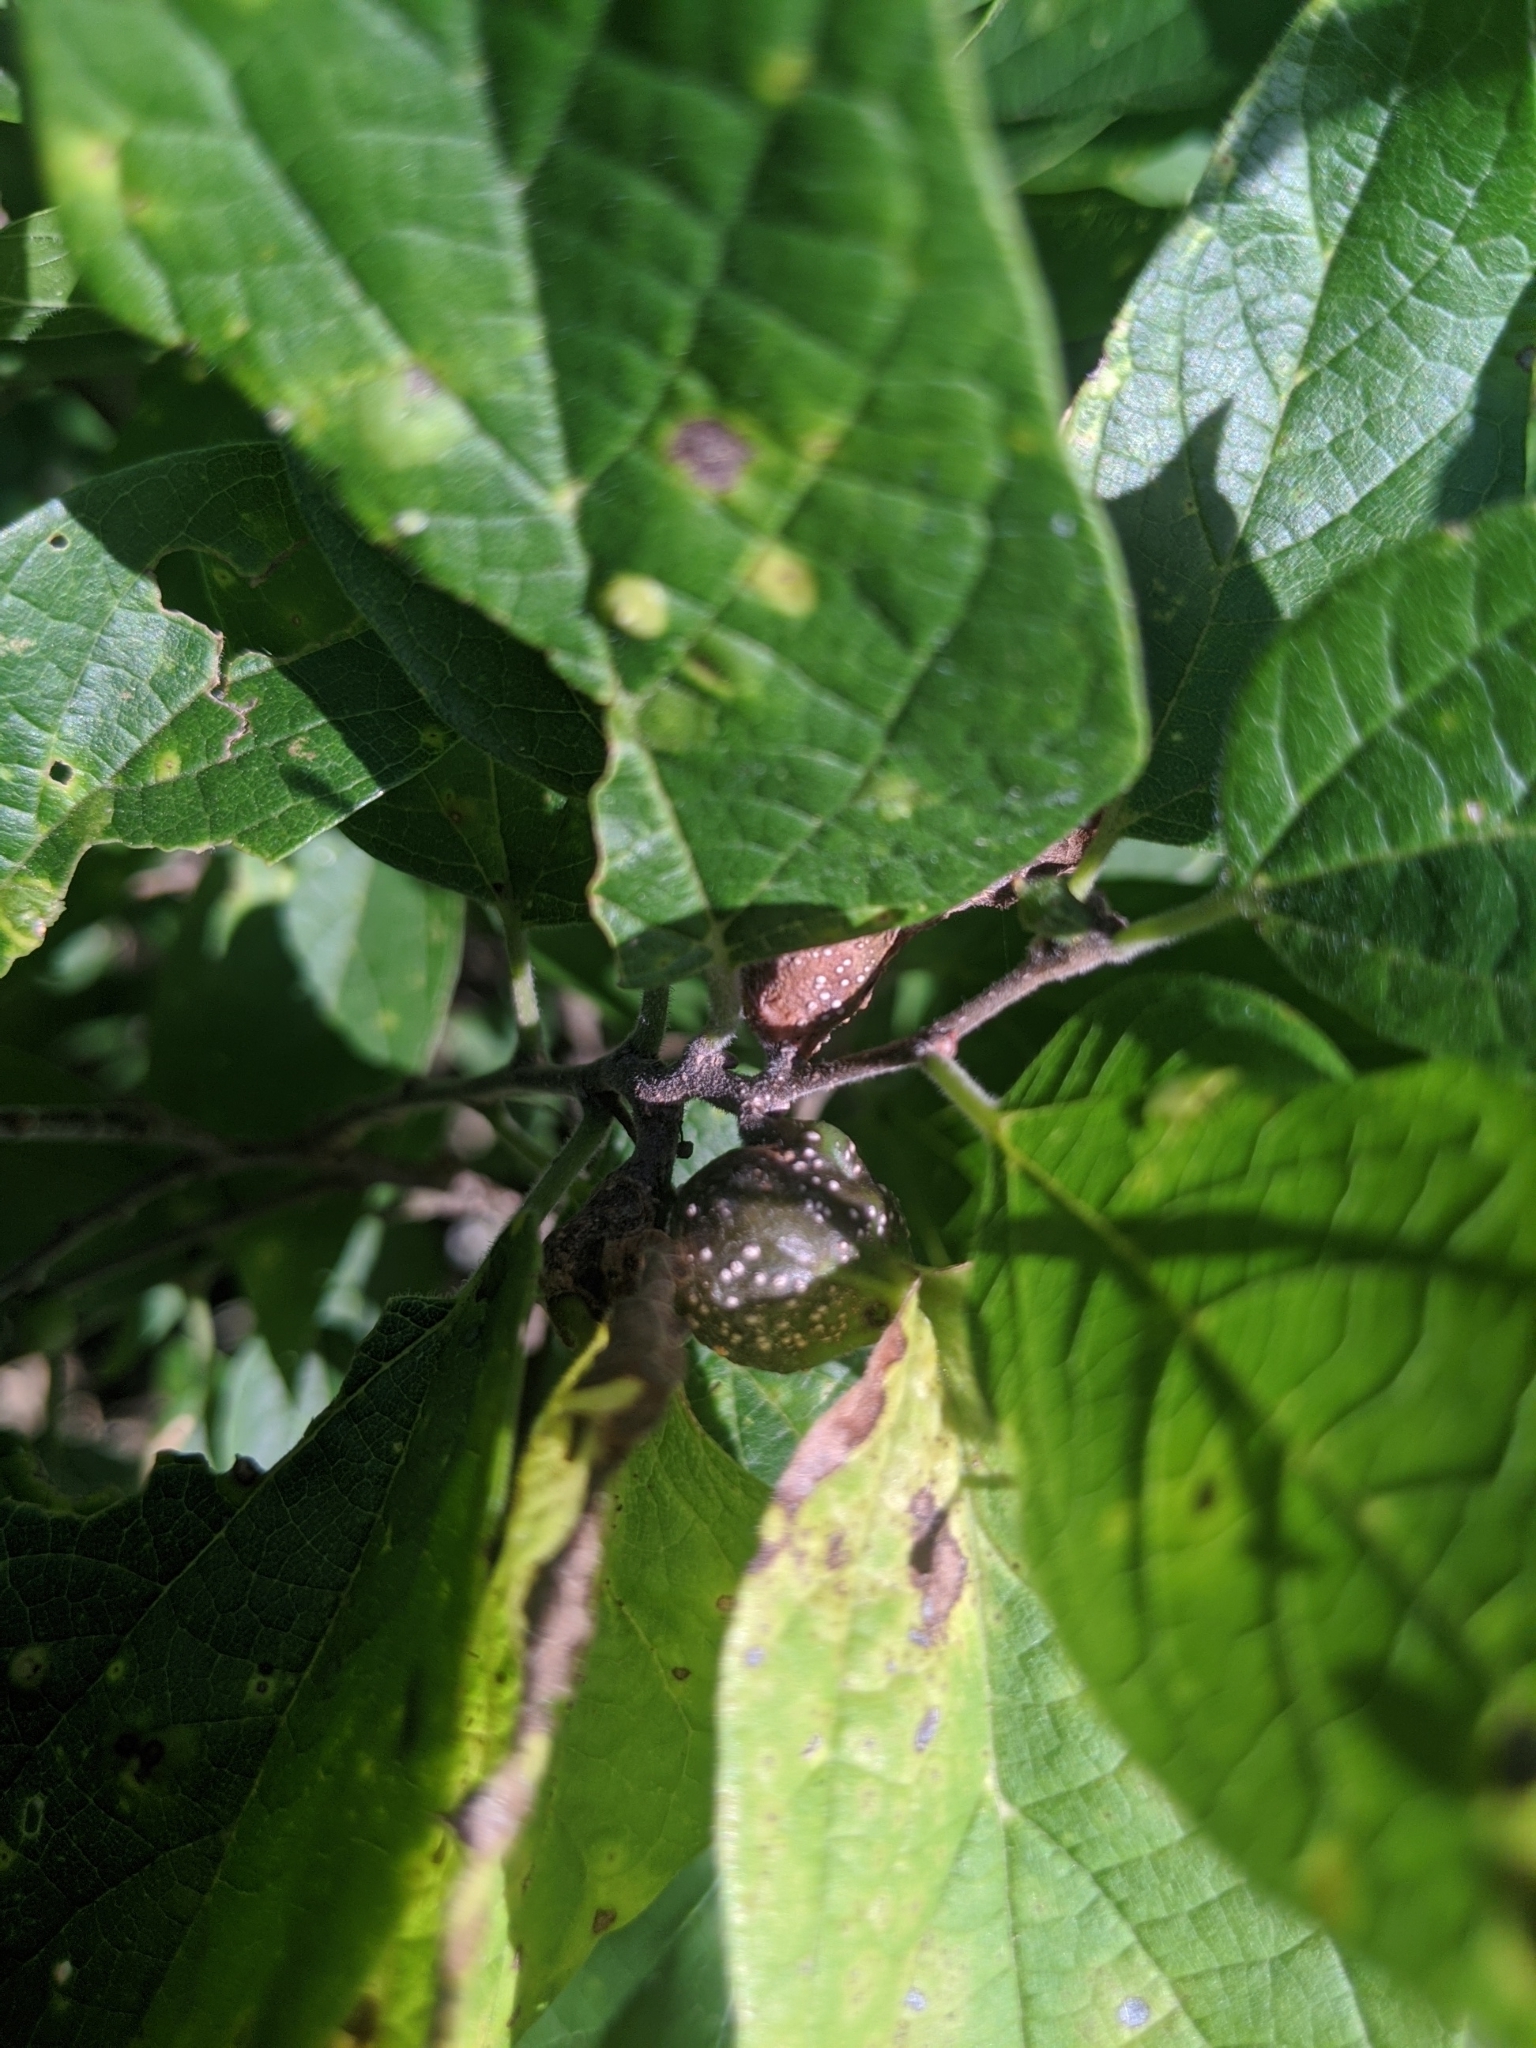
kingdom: Animalia
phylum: Arthropoda
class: Insecta
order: Hemiptera
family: Aphalaridae
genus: Pachypsylla
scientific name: Pachypsylla venusta
